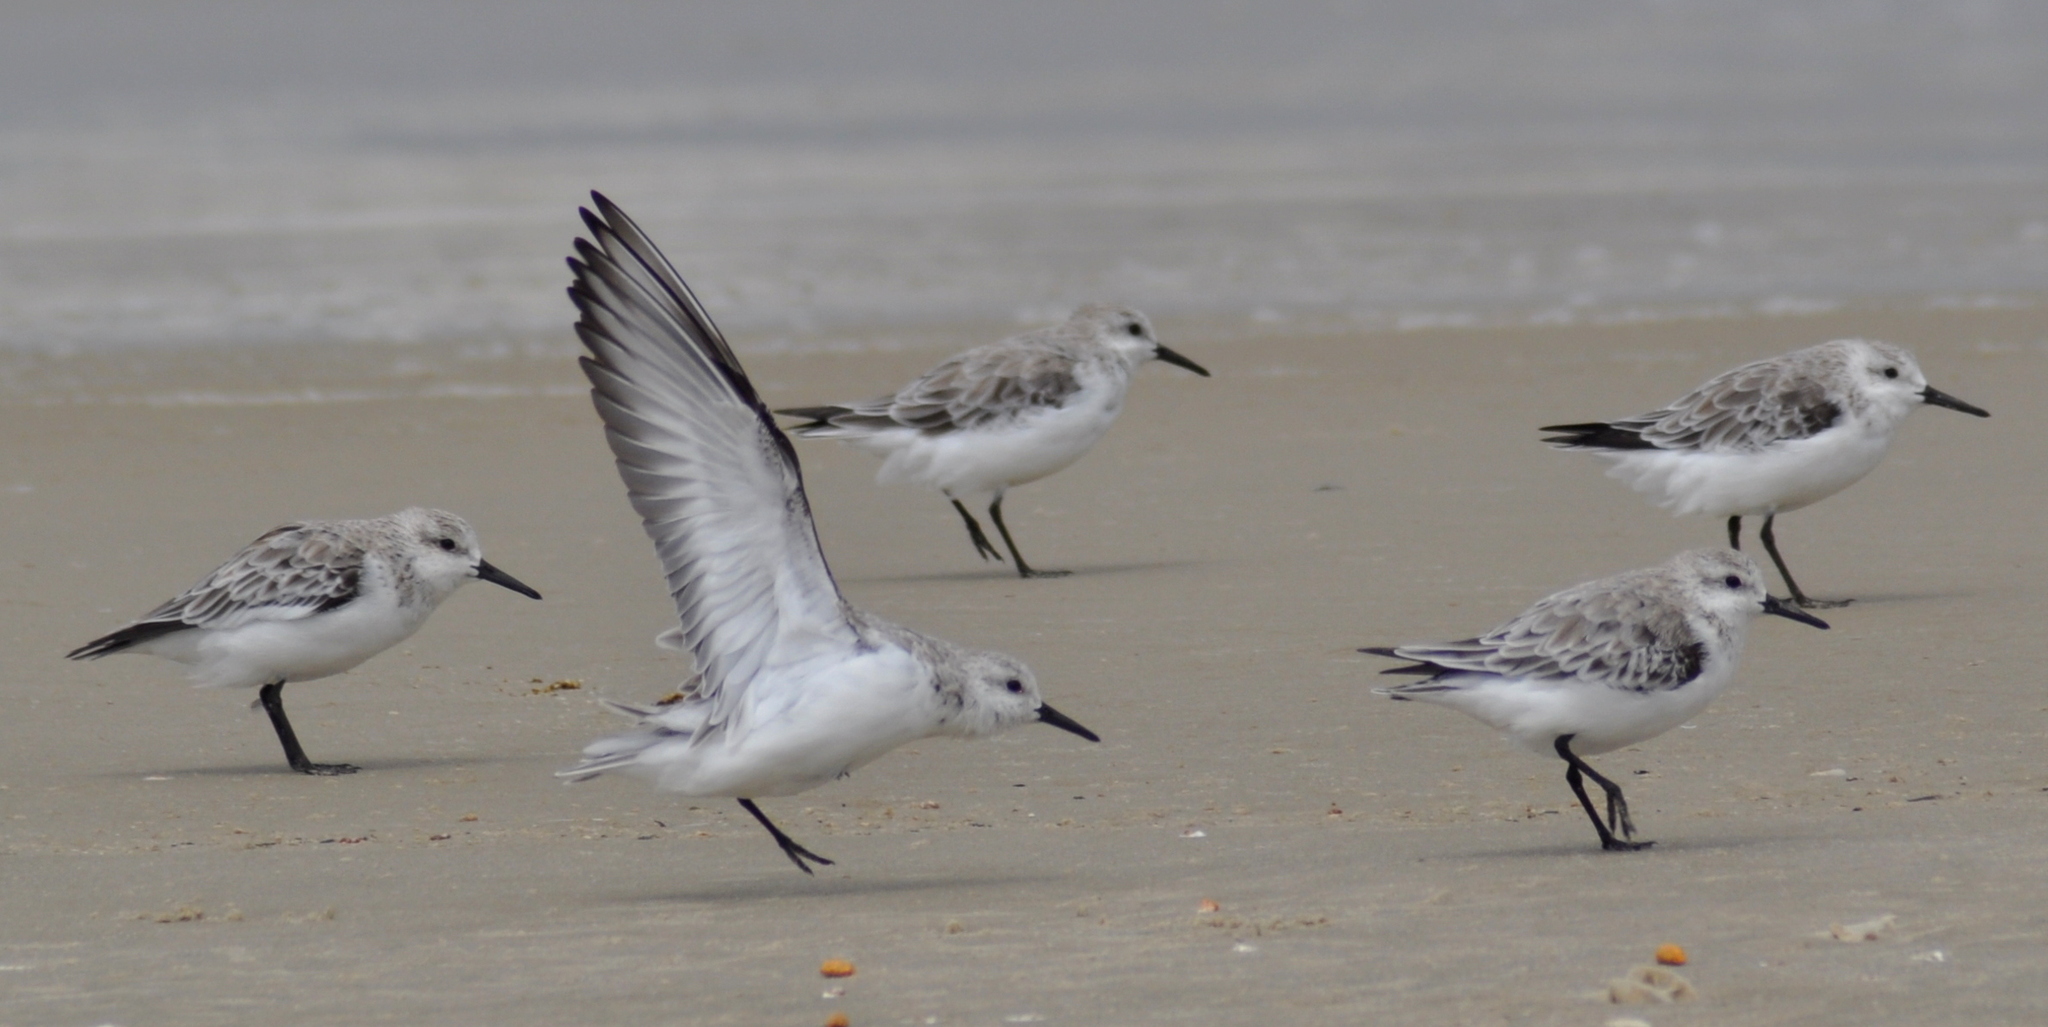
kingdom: Animalia
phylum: Chordata
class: Aves
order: Charadriiformes
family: Scolopacidae
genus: Calidris
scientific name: Calidris alba
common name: Sanderling
